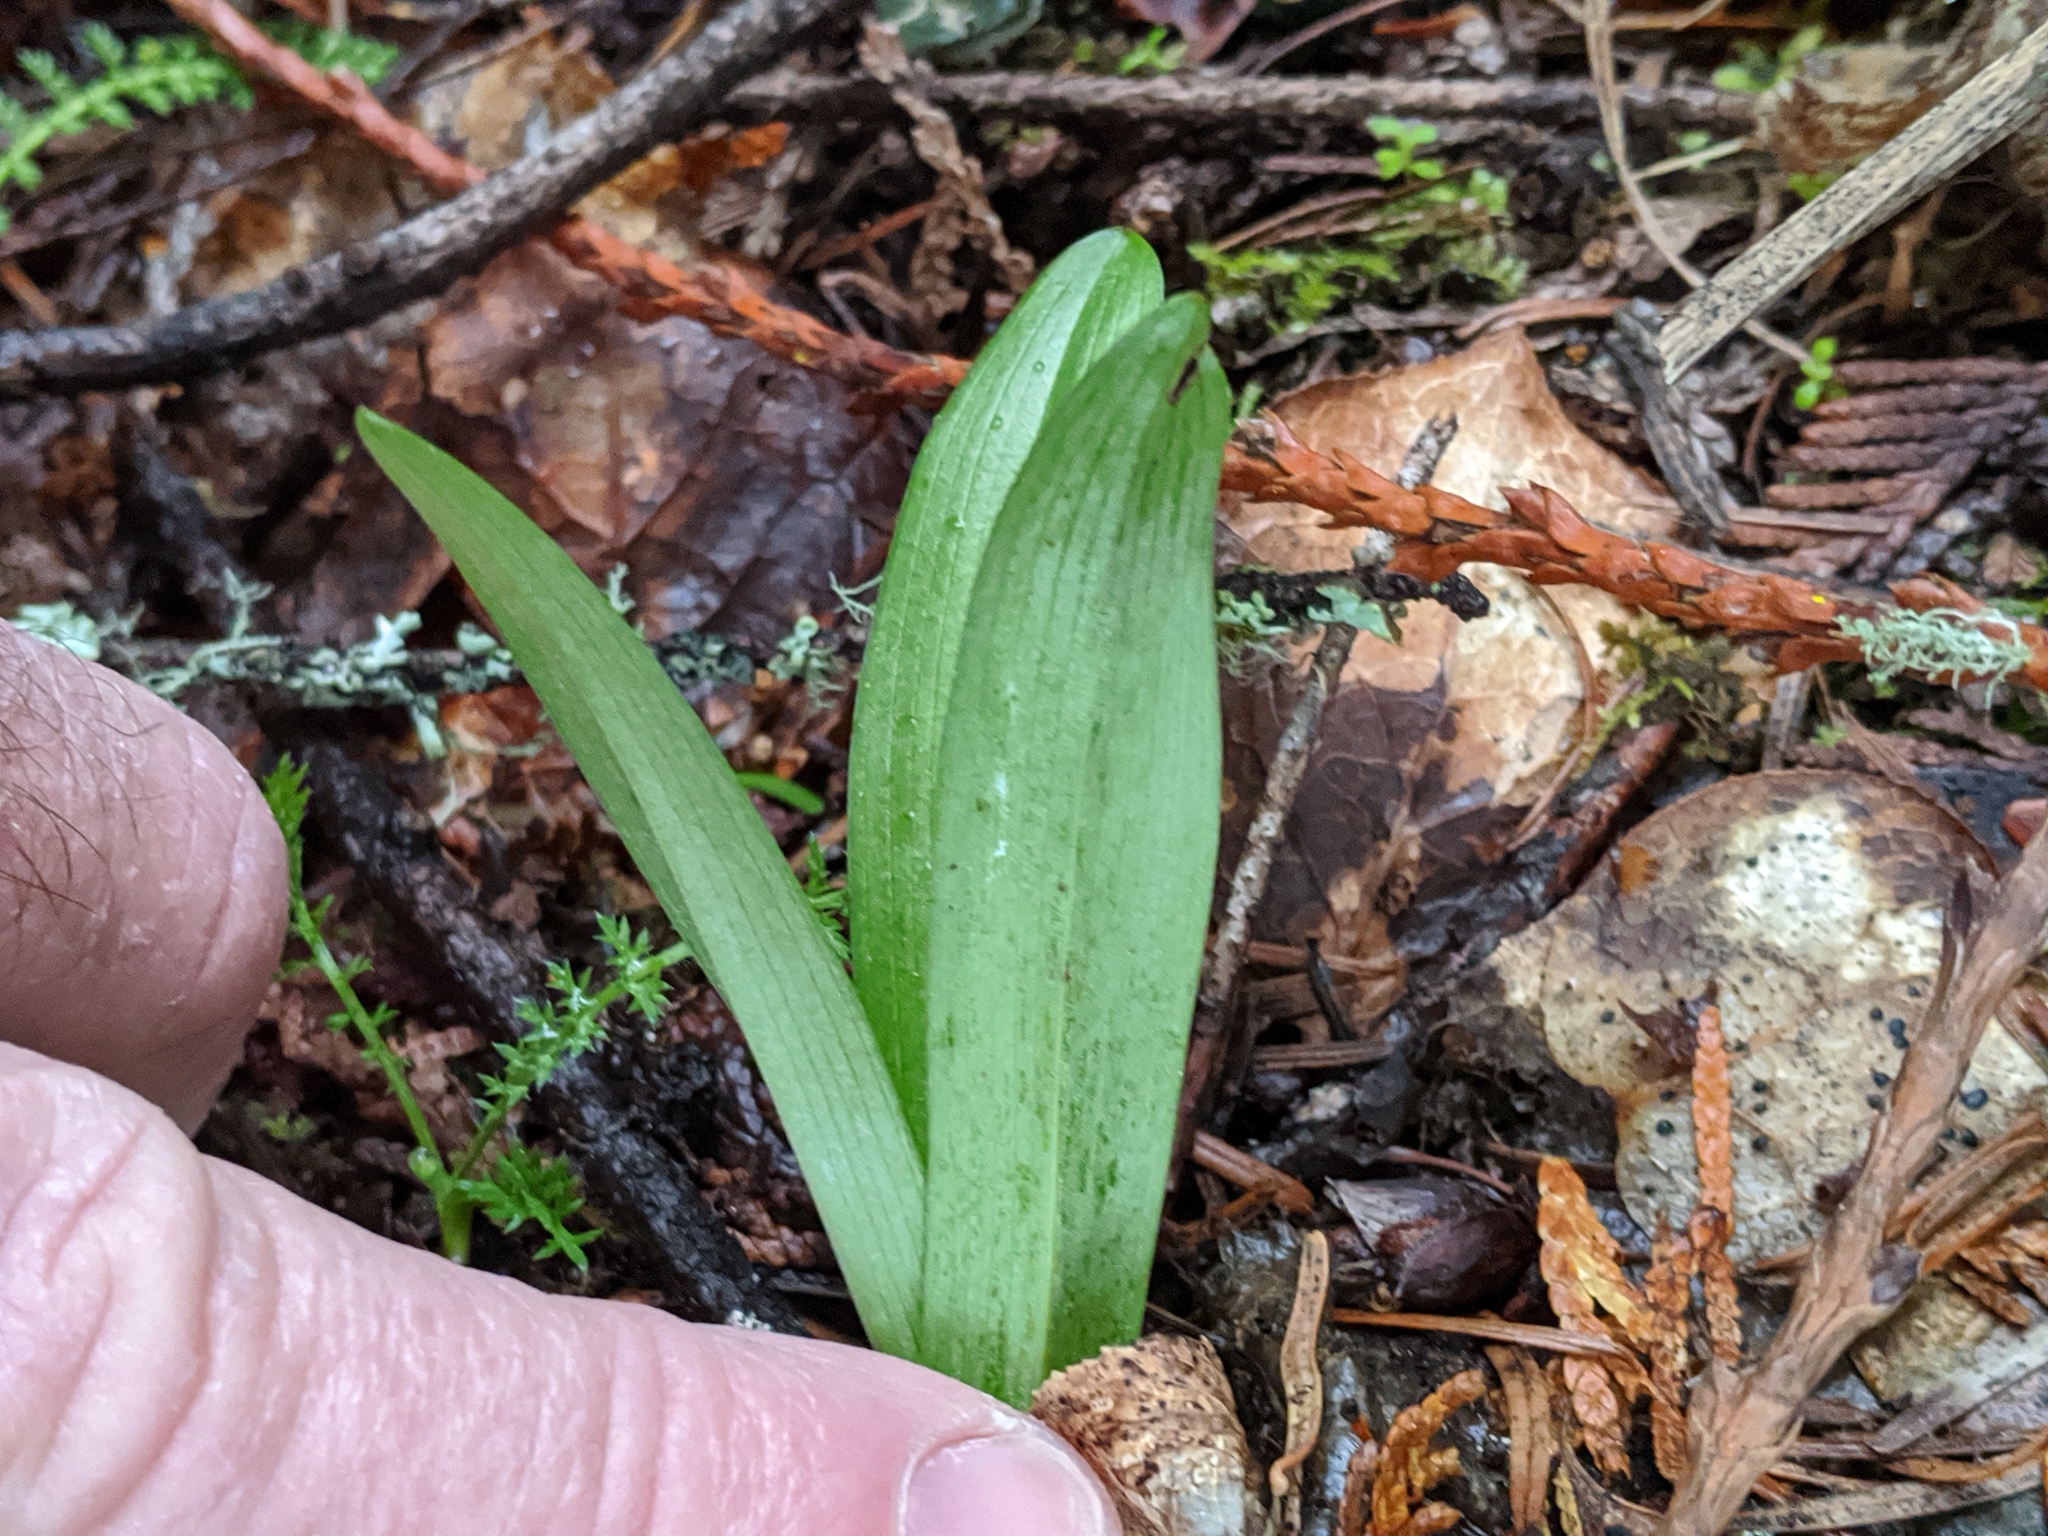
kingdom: Plantae
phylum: Tracheophyta
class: Liliopsida
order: Asparagales
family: Orchidaceae
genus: Platanthera
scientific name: Platanthera unalascensis
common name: Alaska bog orchid
